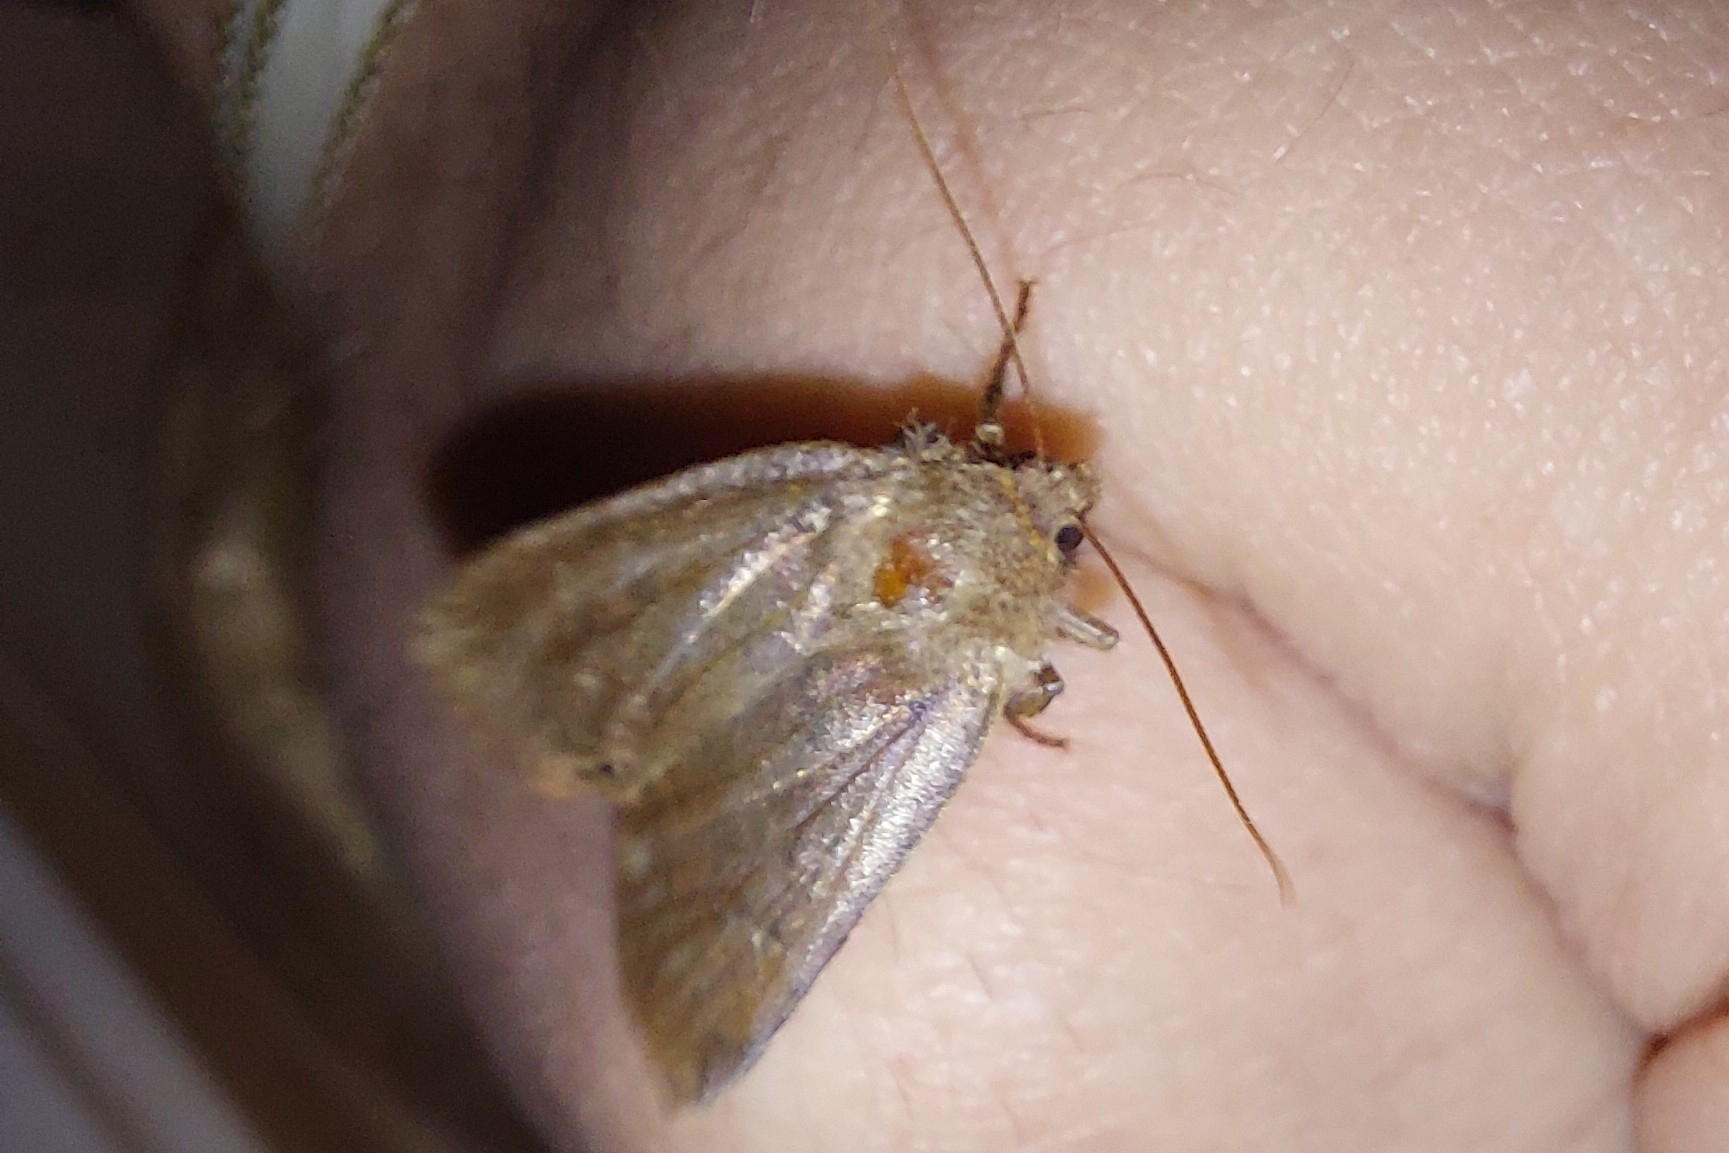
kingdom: Animalia
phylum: Arthropoda
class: Insecta
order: Lepidoptera
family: Noctuidae
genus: Conistra
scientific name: Conistra vaccinii
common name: Chestnut
